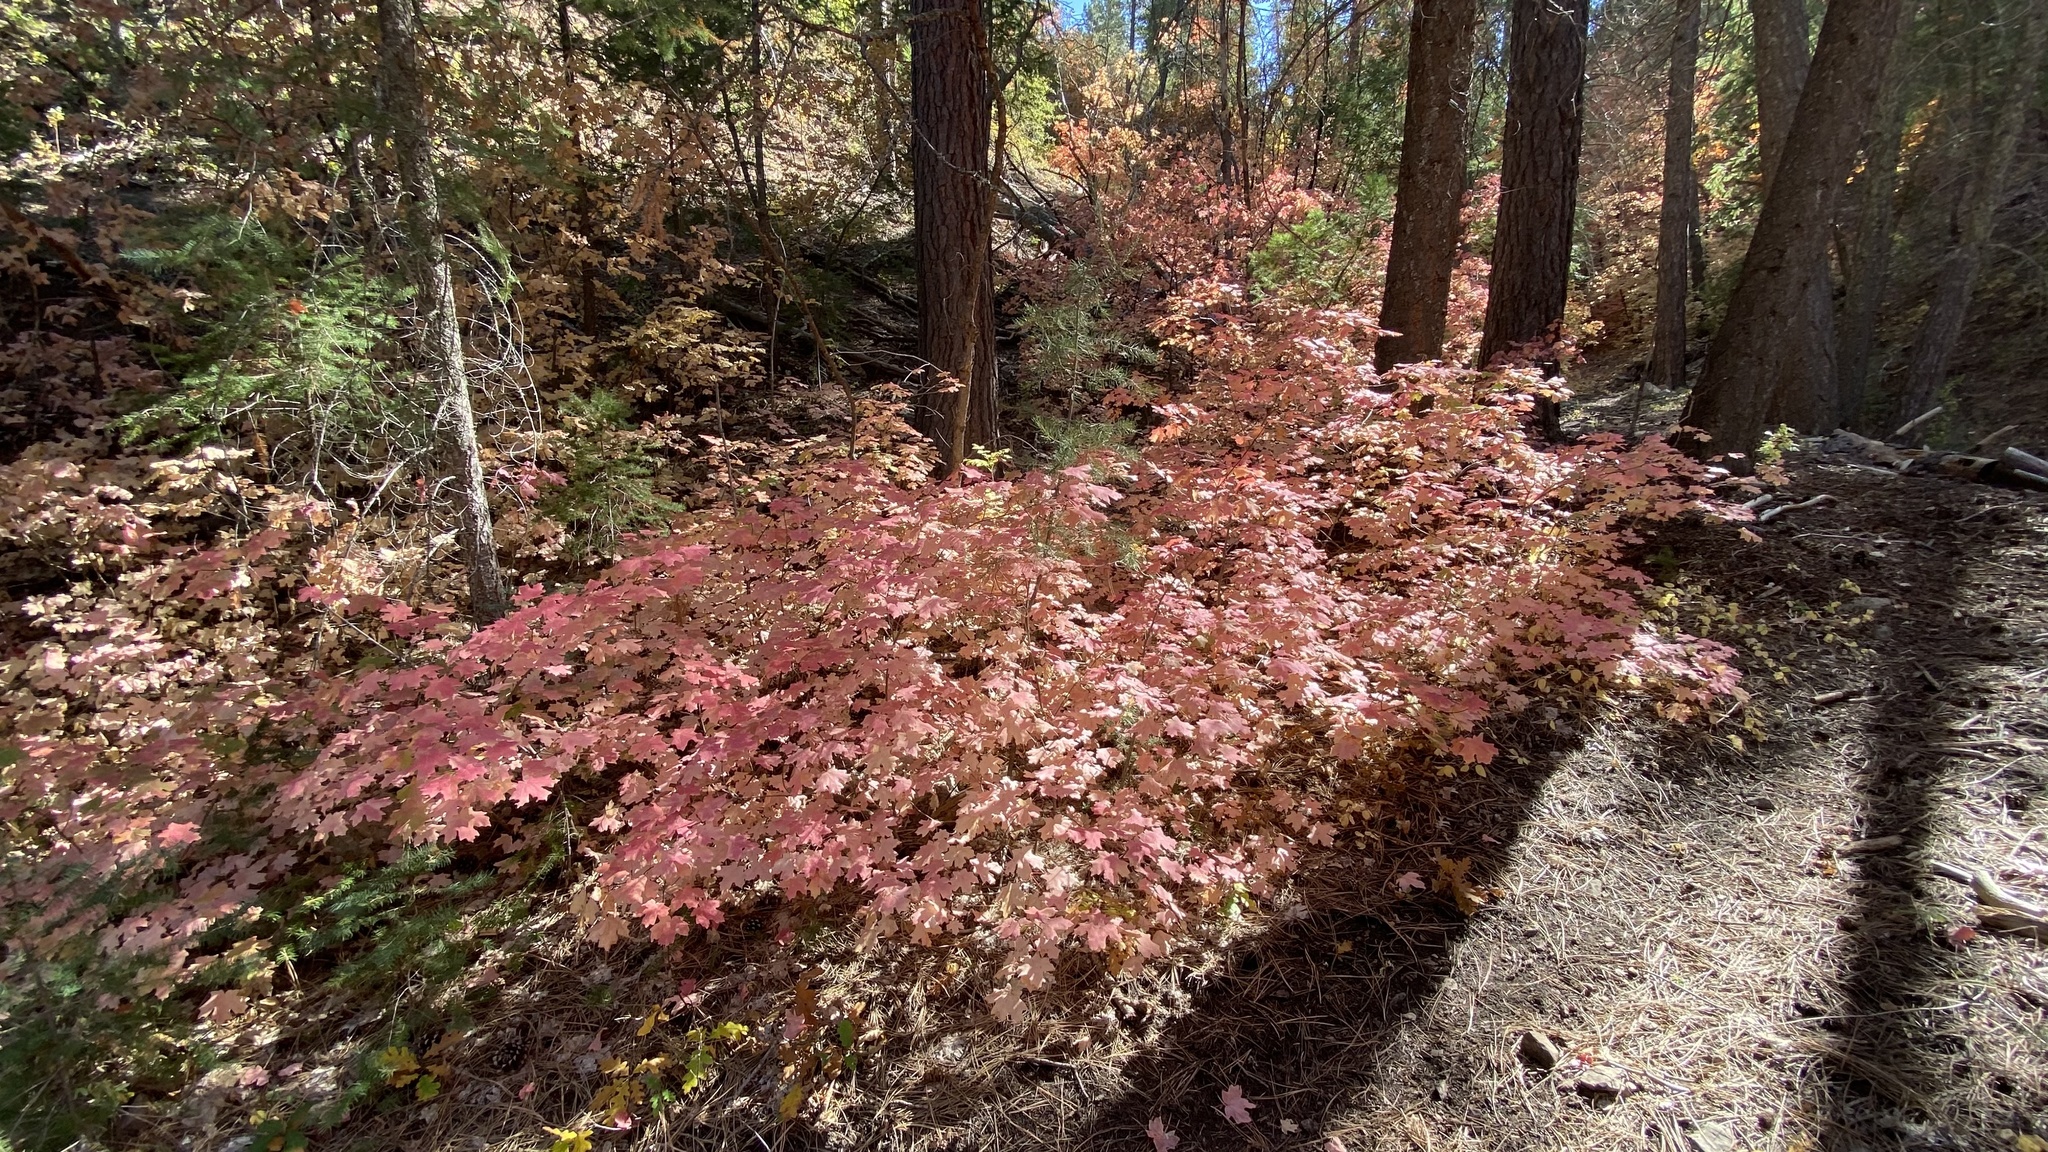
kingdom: Plantae
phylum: Tracheophyta
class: Magnoliopsida
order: Sapindales
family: Sapindaceae
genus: Acer
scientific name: Acer grandidentatum
